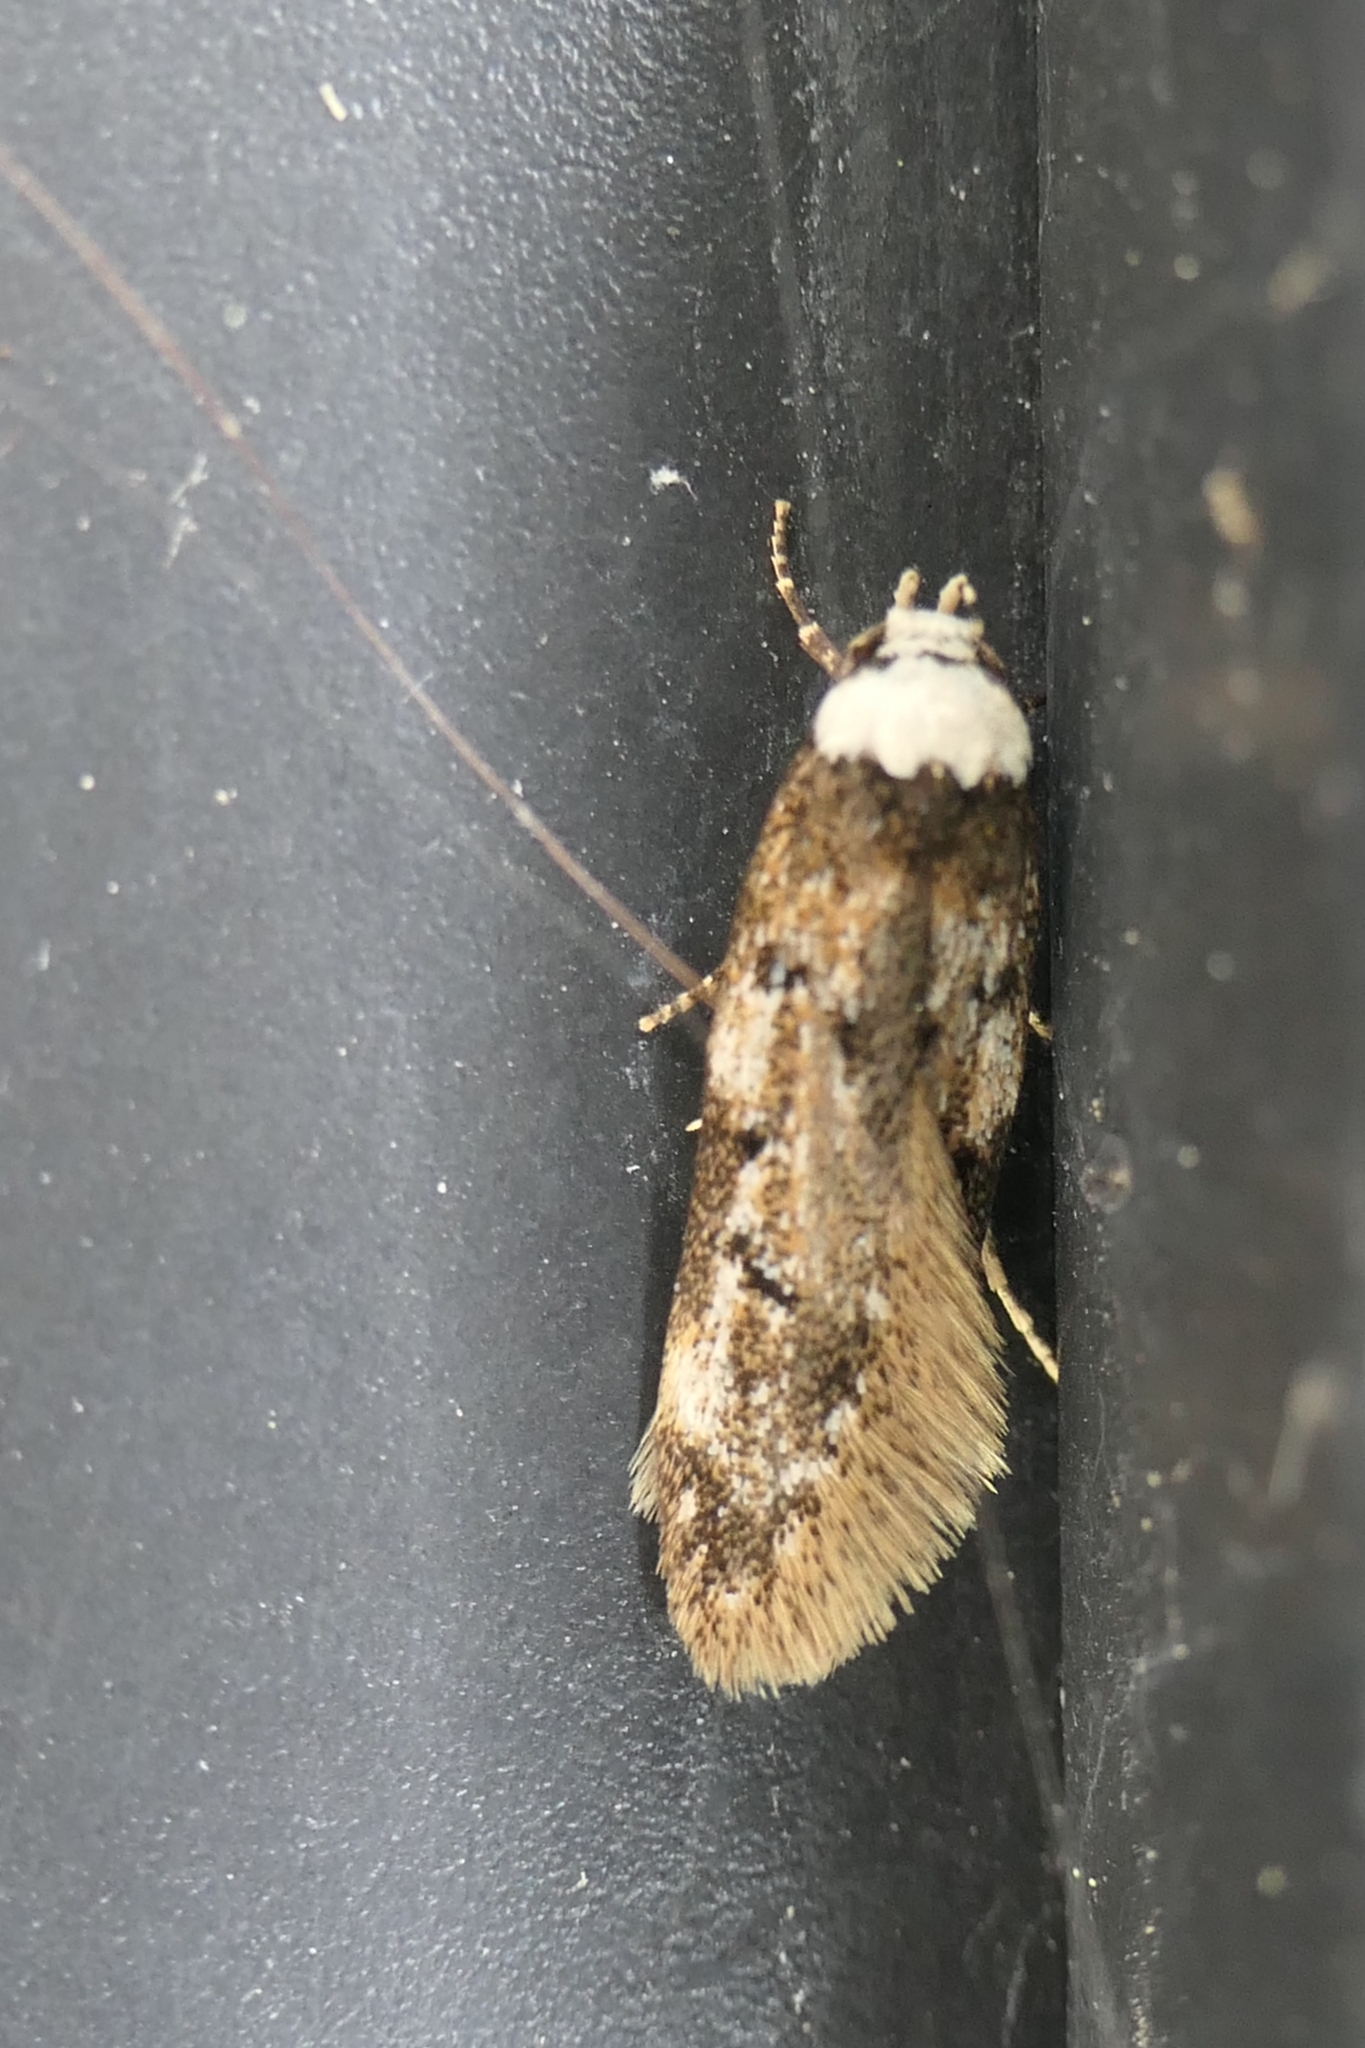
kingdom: Animalia
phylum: Arthropoda
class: Insecta
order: Lepidoptera
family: Oecophoridae
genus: Endrosis
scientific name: Endrosis sarcitrella
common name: White-shouldered house moth
